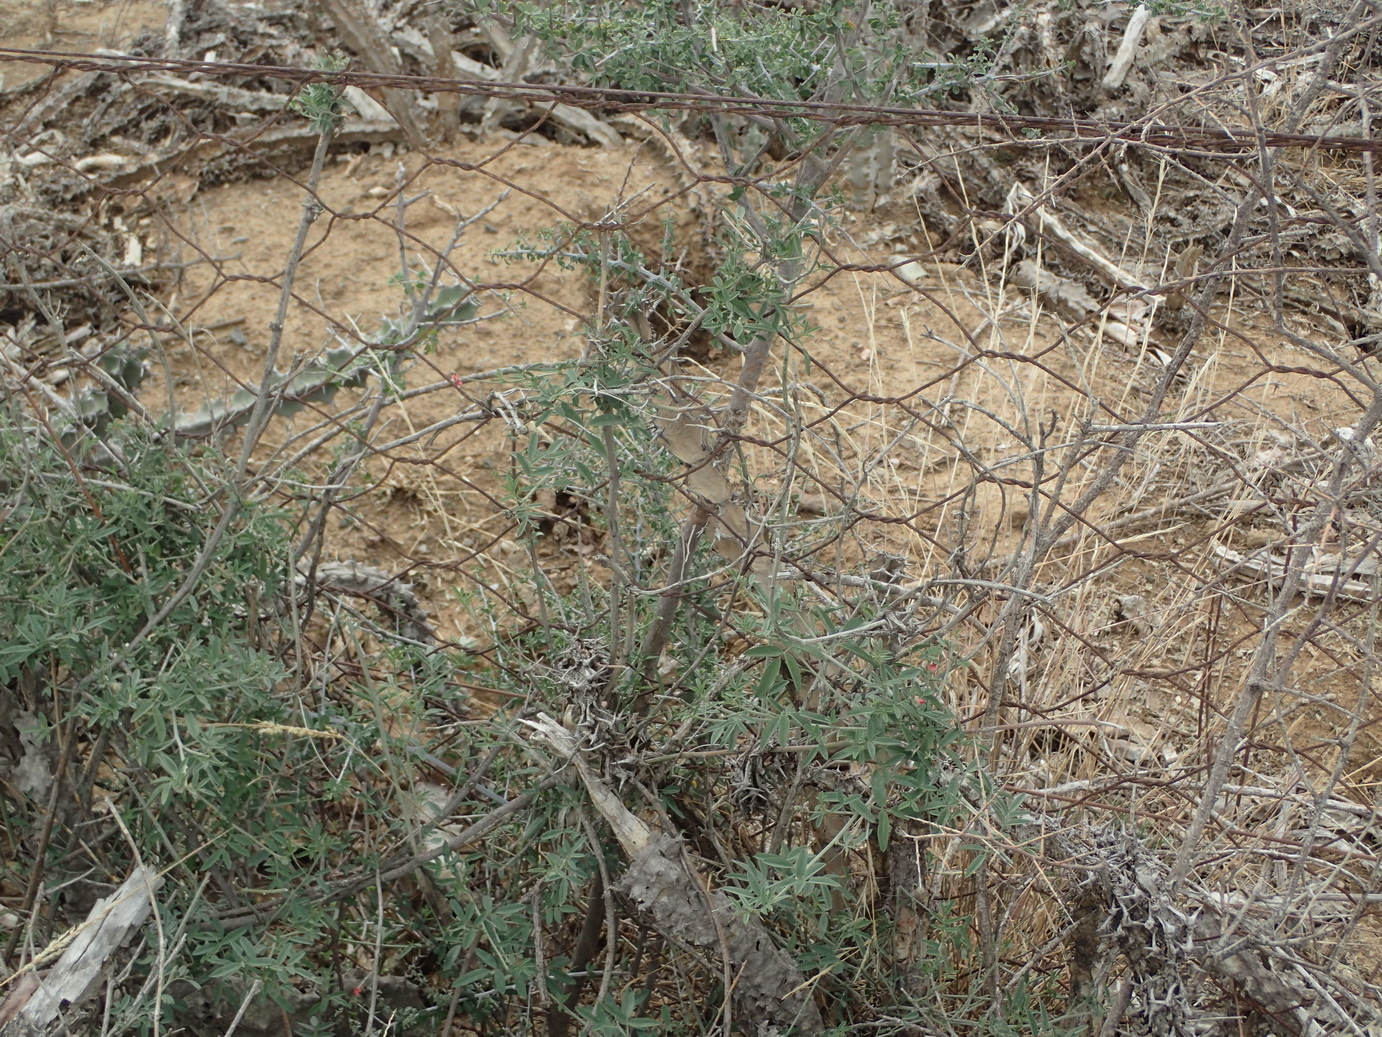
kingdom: Plantae
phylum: Tracheophyta
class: Magnoliopsida
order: Fabales
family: Fabaceae
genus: Indigofera
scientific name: Indigofera disticha
